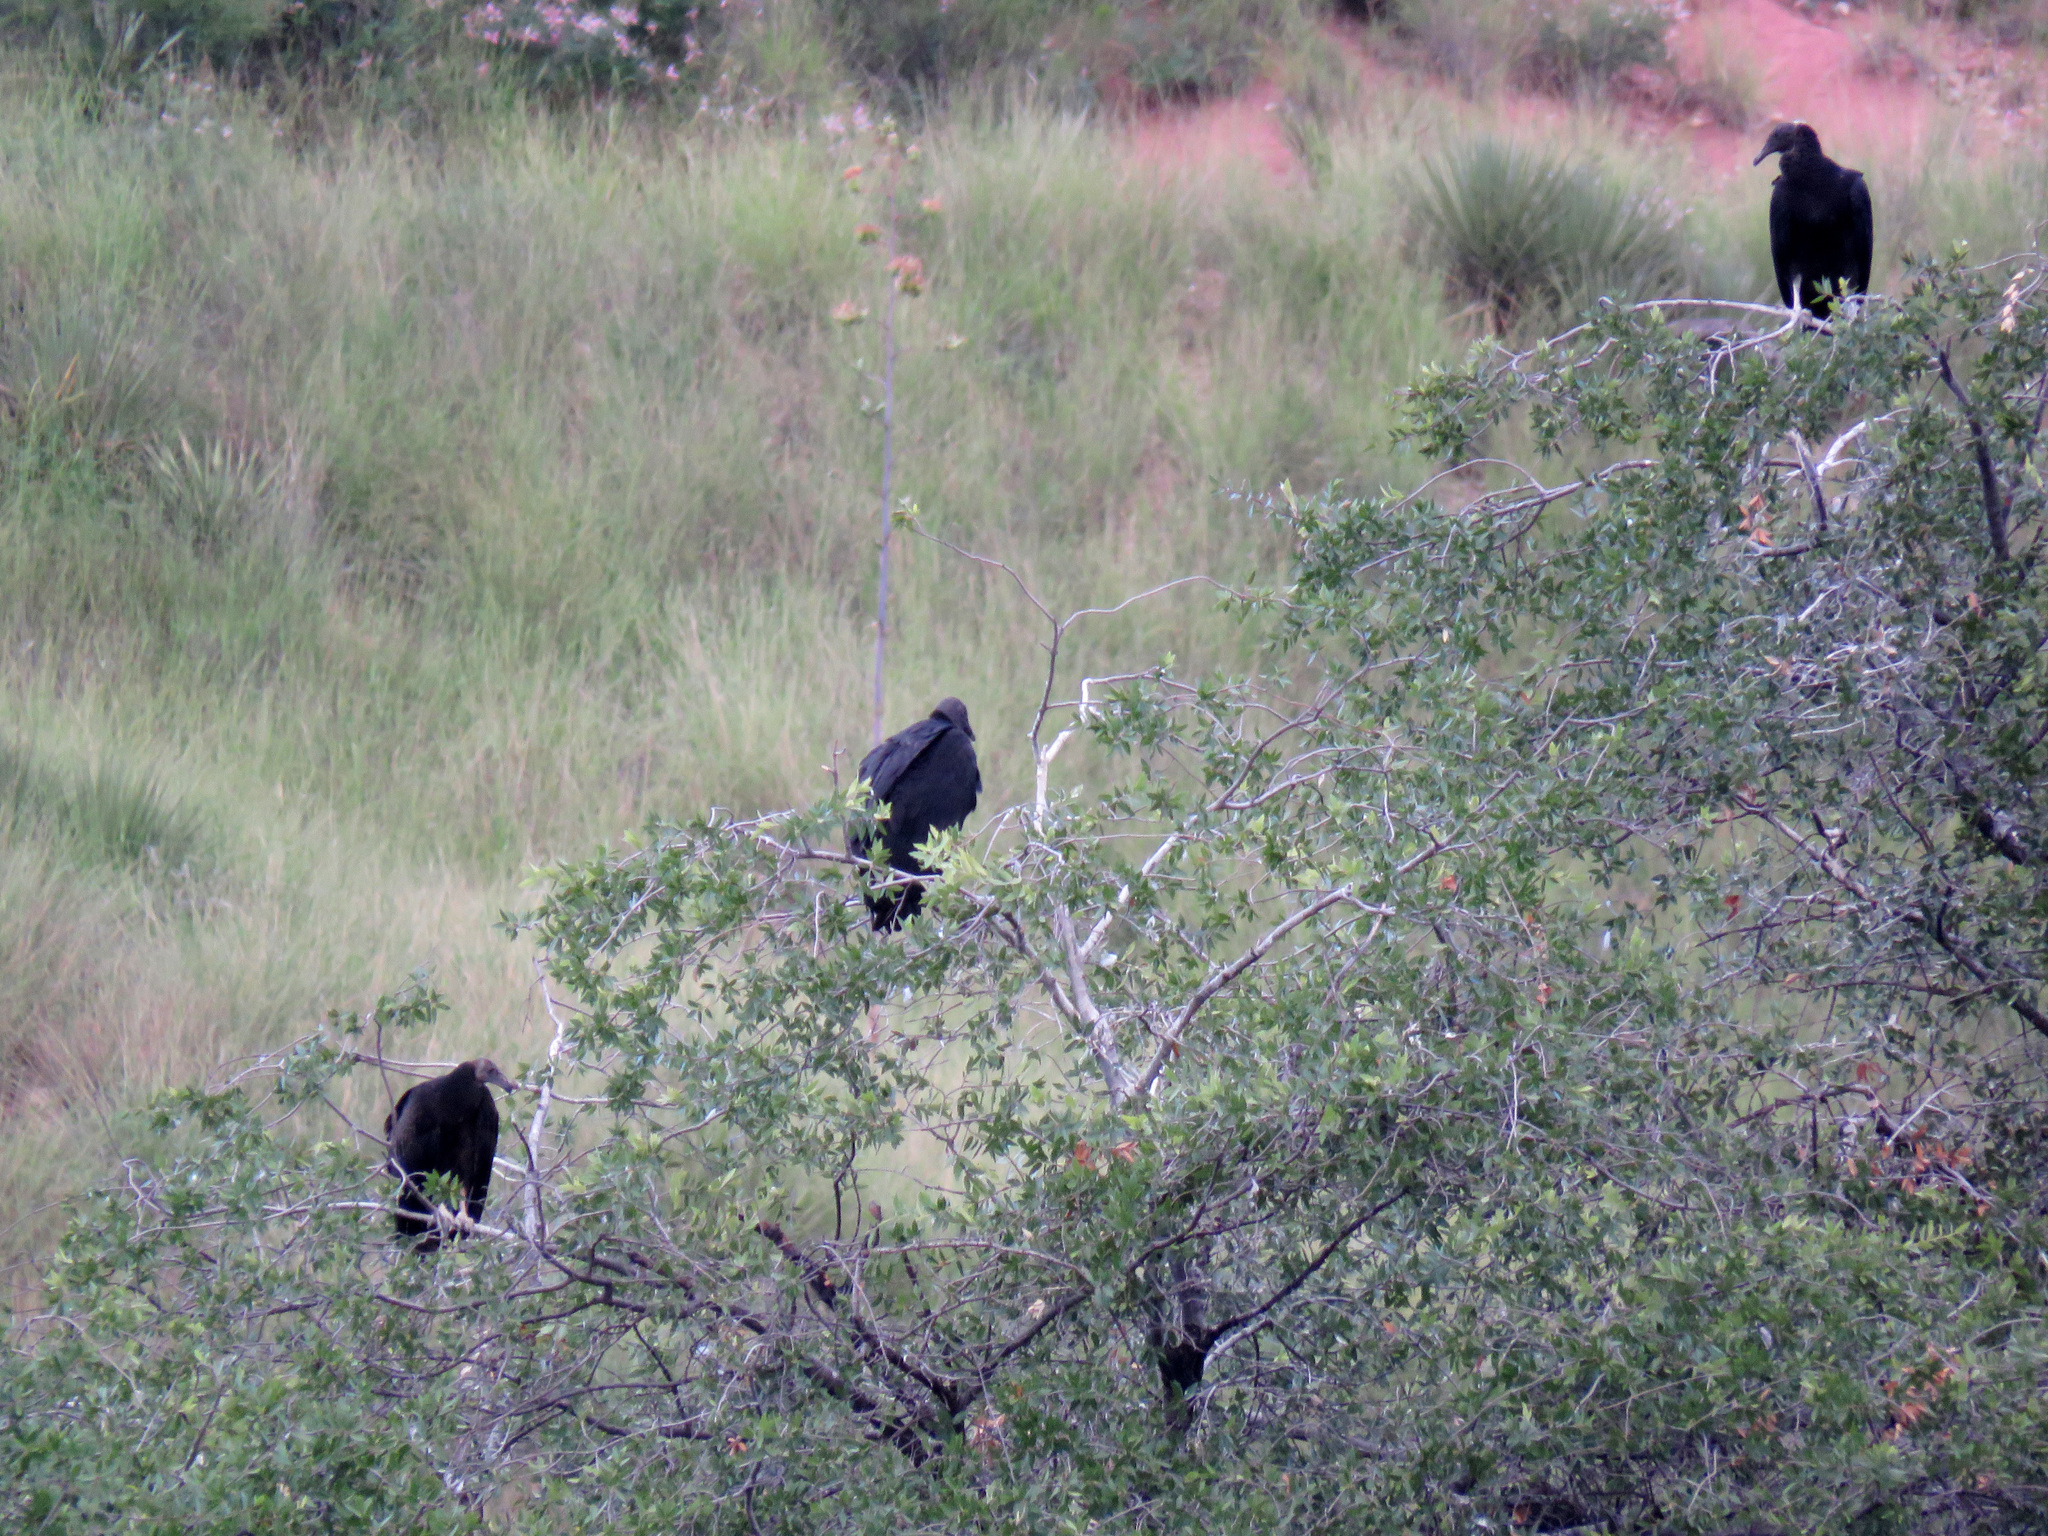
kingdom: Animalia
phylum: Chordata
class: Aves
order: Accipitriformes
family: Cathartidae
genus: Coragyps
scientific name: Coragyps atratus
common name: Black vulture
